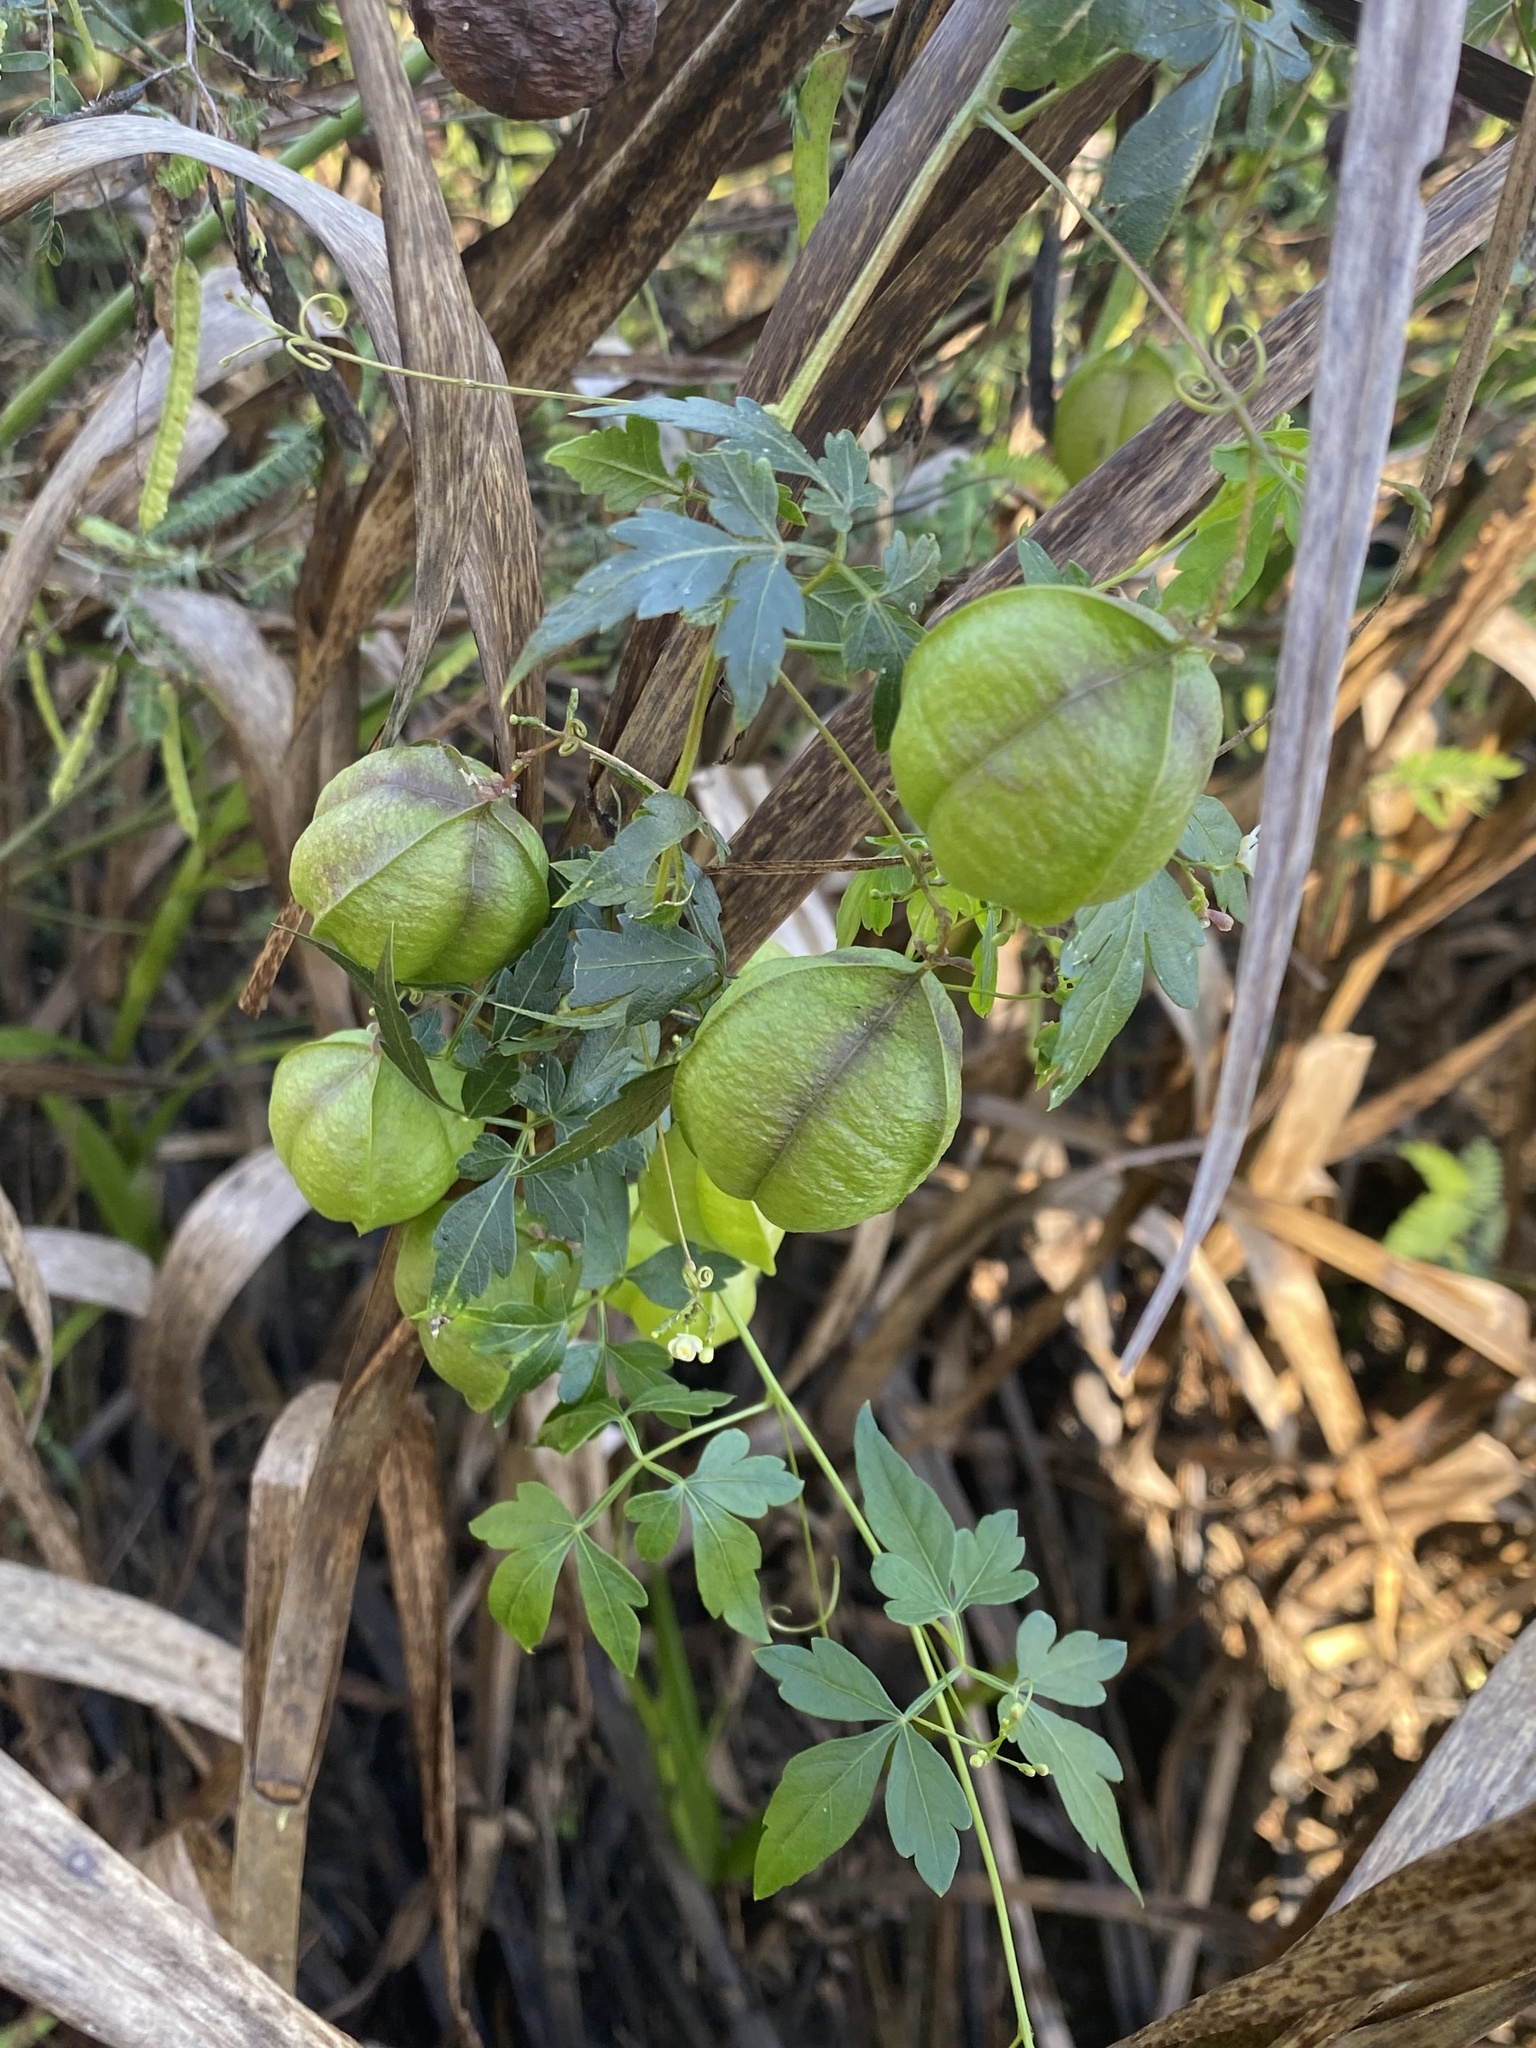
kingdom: Plantae
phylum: Tracheophyta
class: Magnoliopsida
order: Sapindales
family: Sapindaceae
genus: Cardiospermum
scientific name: Cardiospermum halicacabum
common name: Balloon vine
